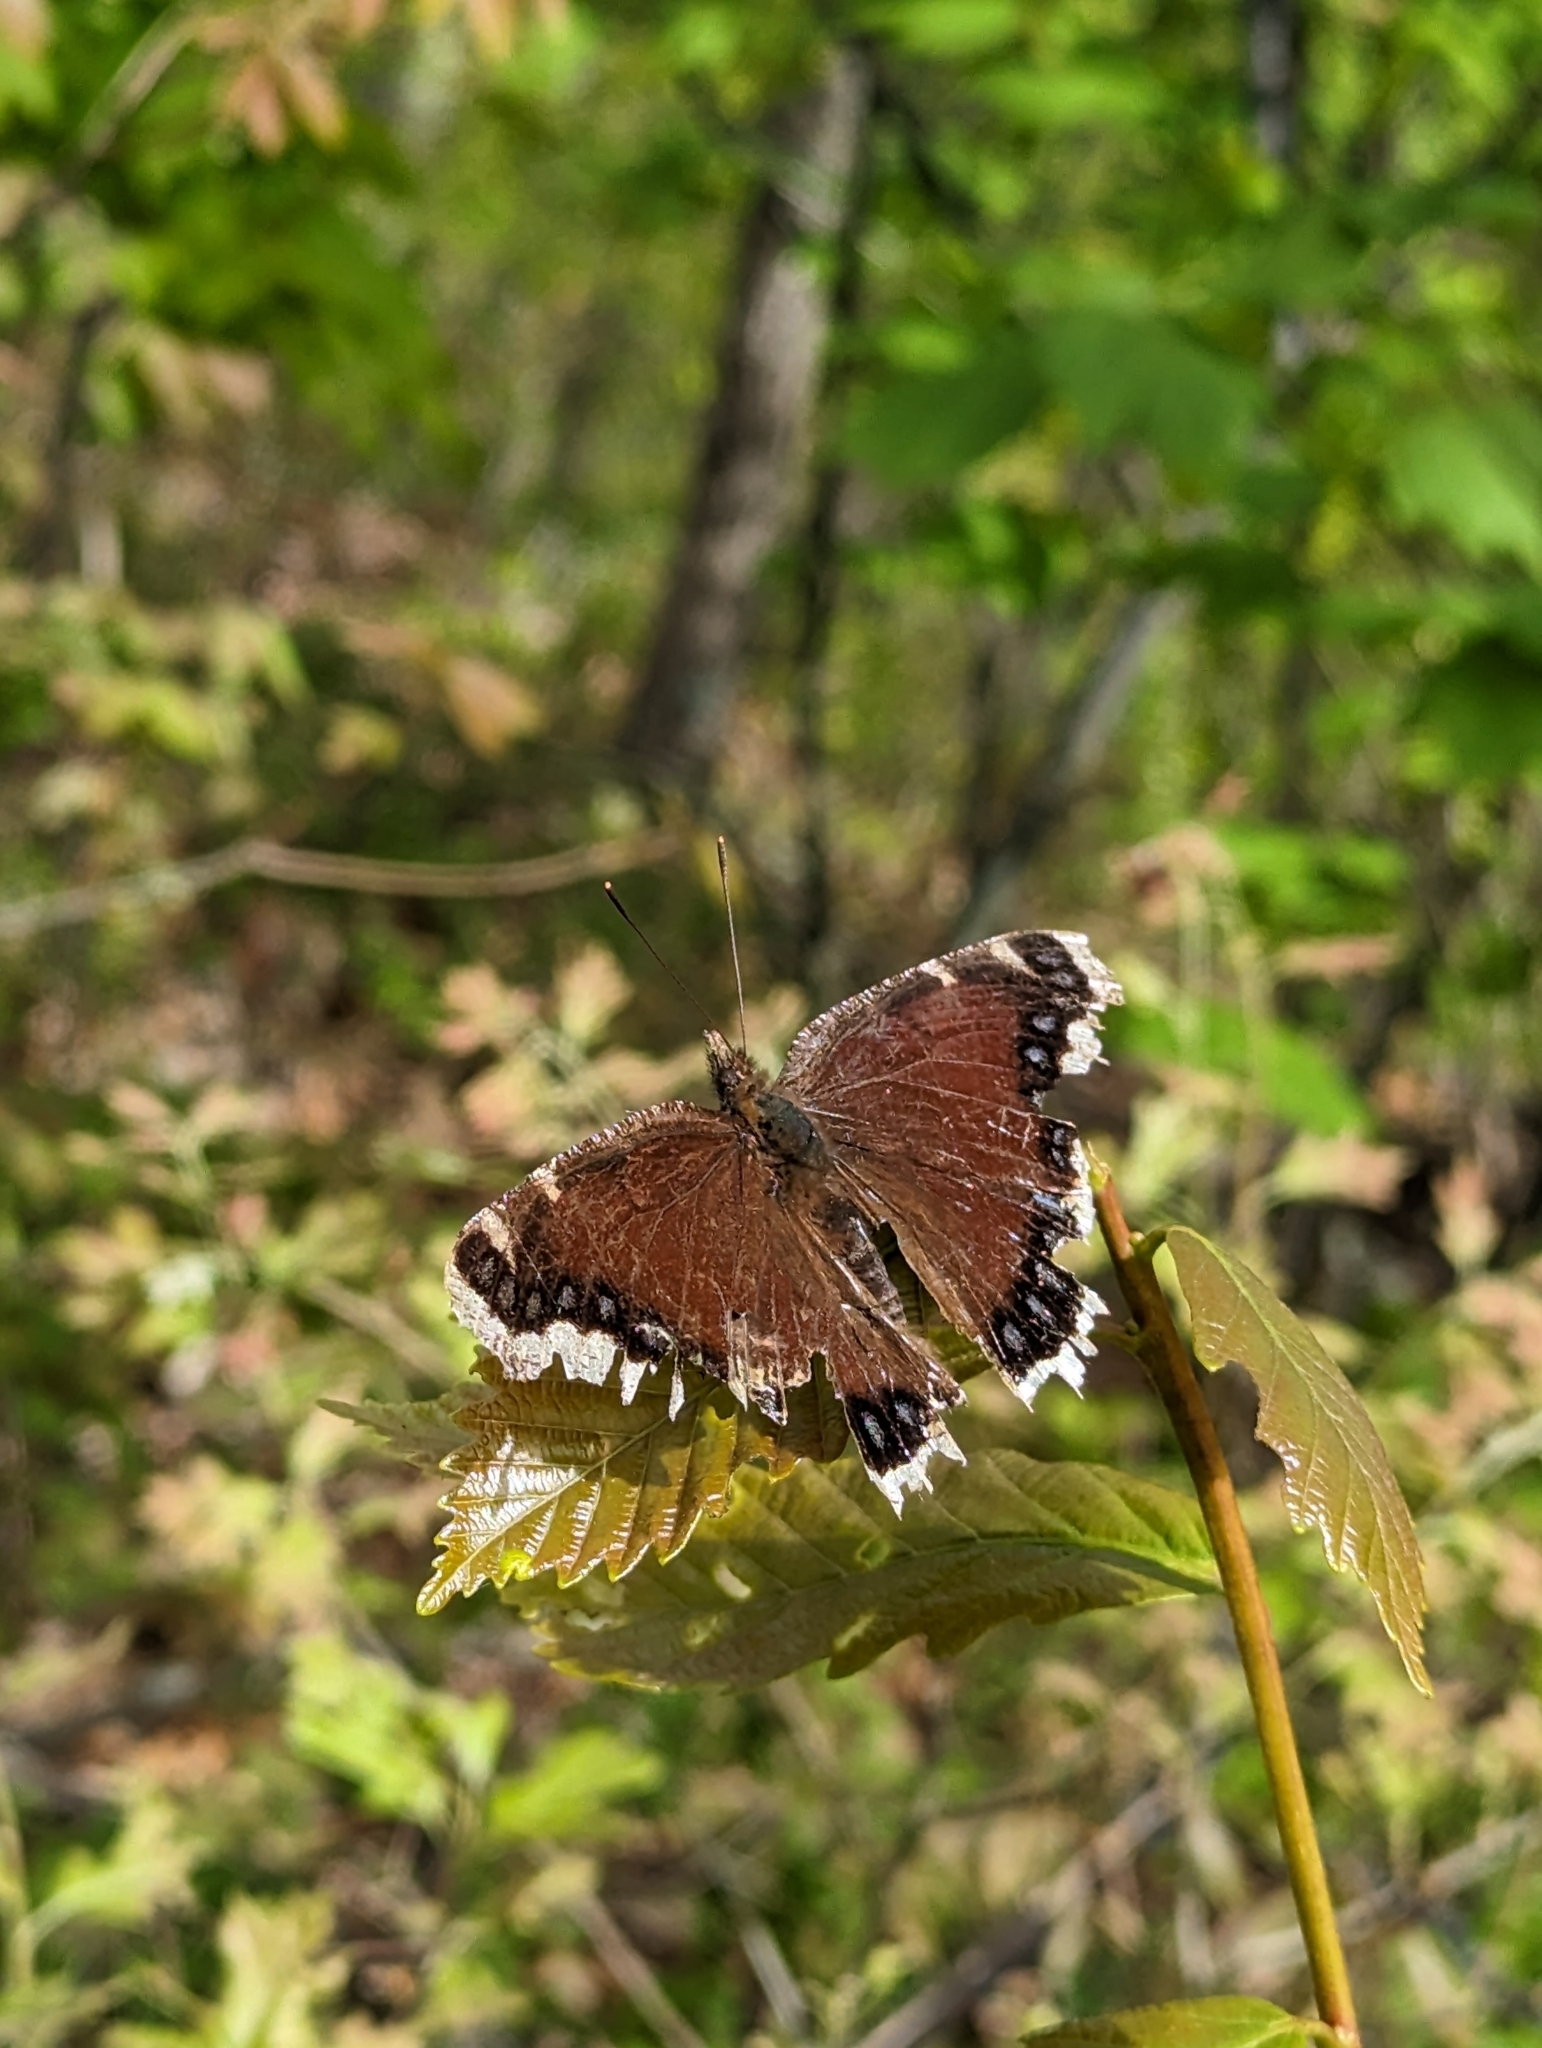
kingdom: Animalia
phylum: Arthropoda
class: Insecta
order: Lepidoptera
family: Nymphalidae
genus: Nymphalis
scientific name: Nymphalis antiopa
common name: Camberwell beauty
